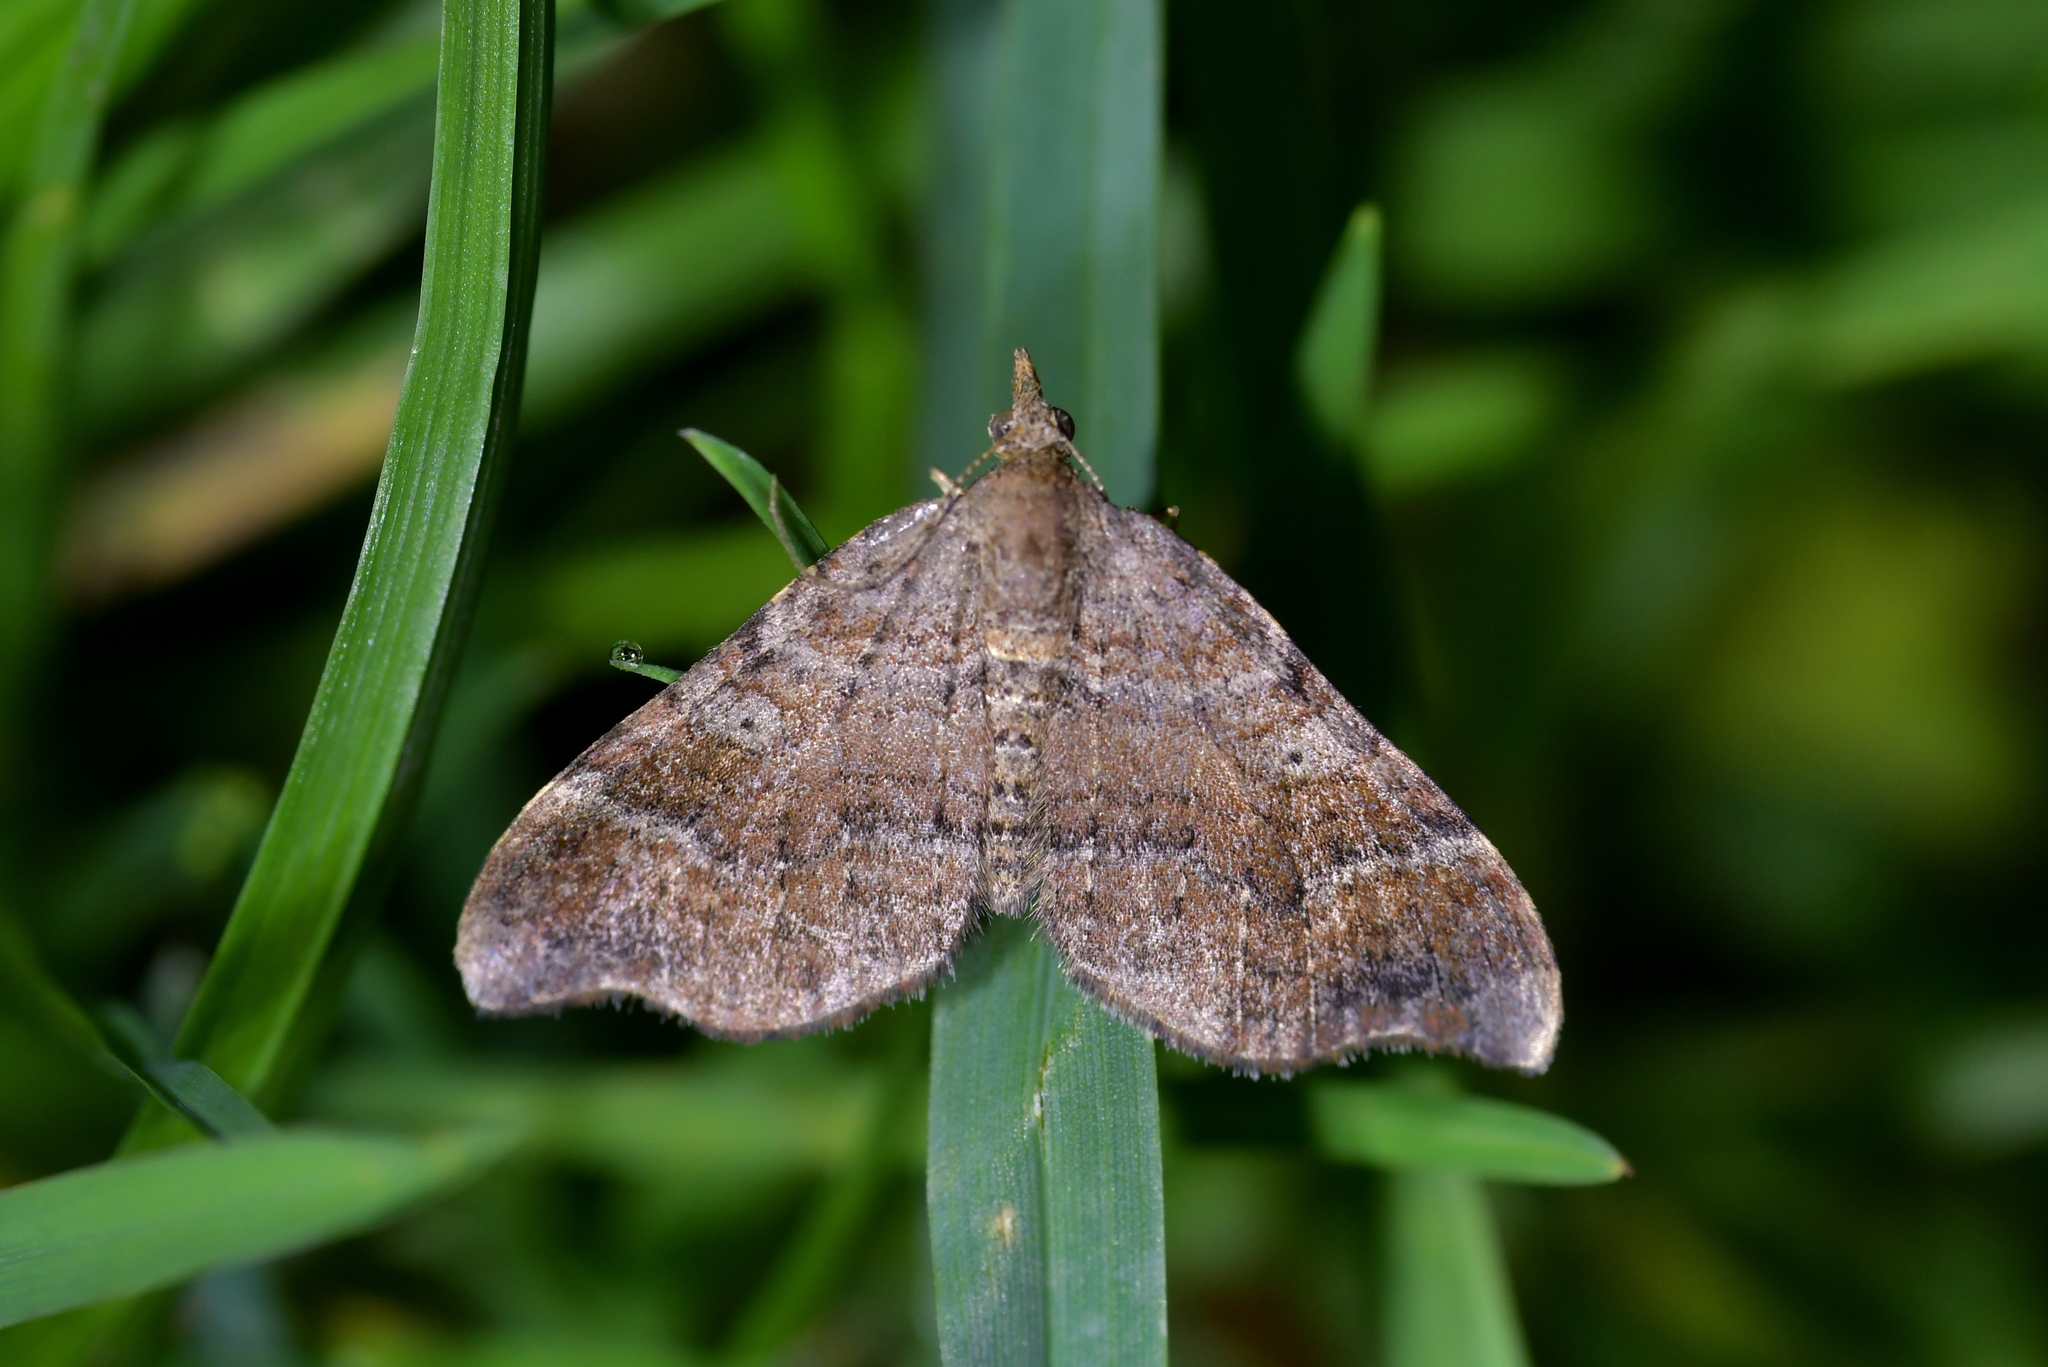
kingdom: Animalia
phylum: Arthropoda
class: Insecta
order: Lepidoptera
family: Geometridae
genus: Homodotis
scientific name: Homodotis megaspilata
